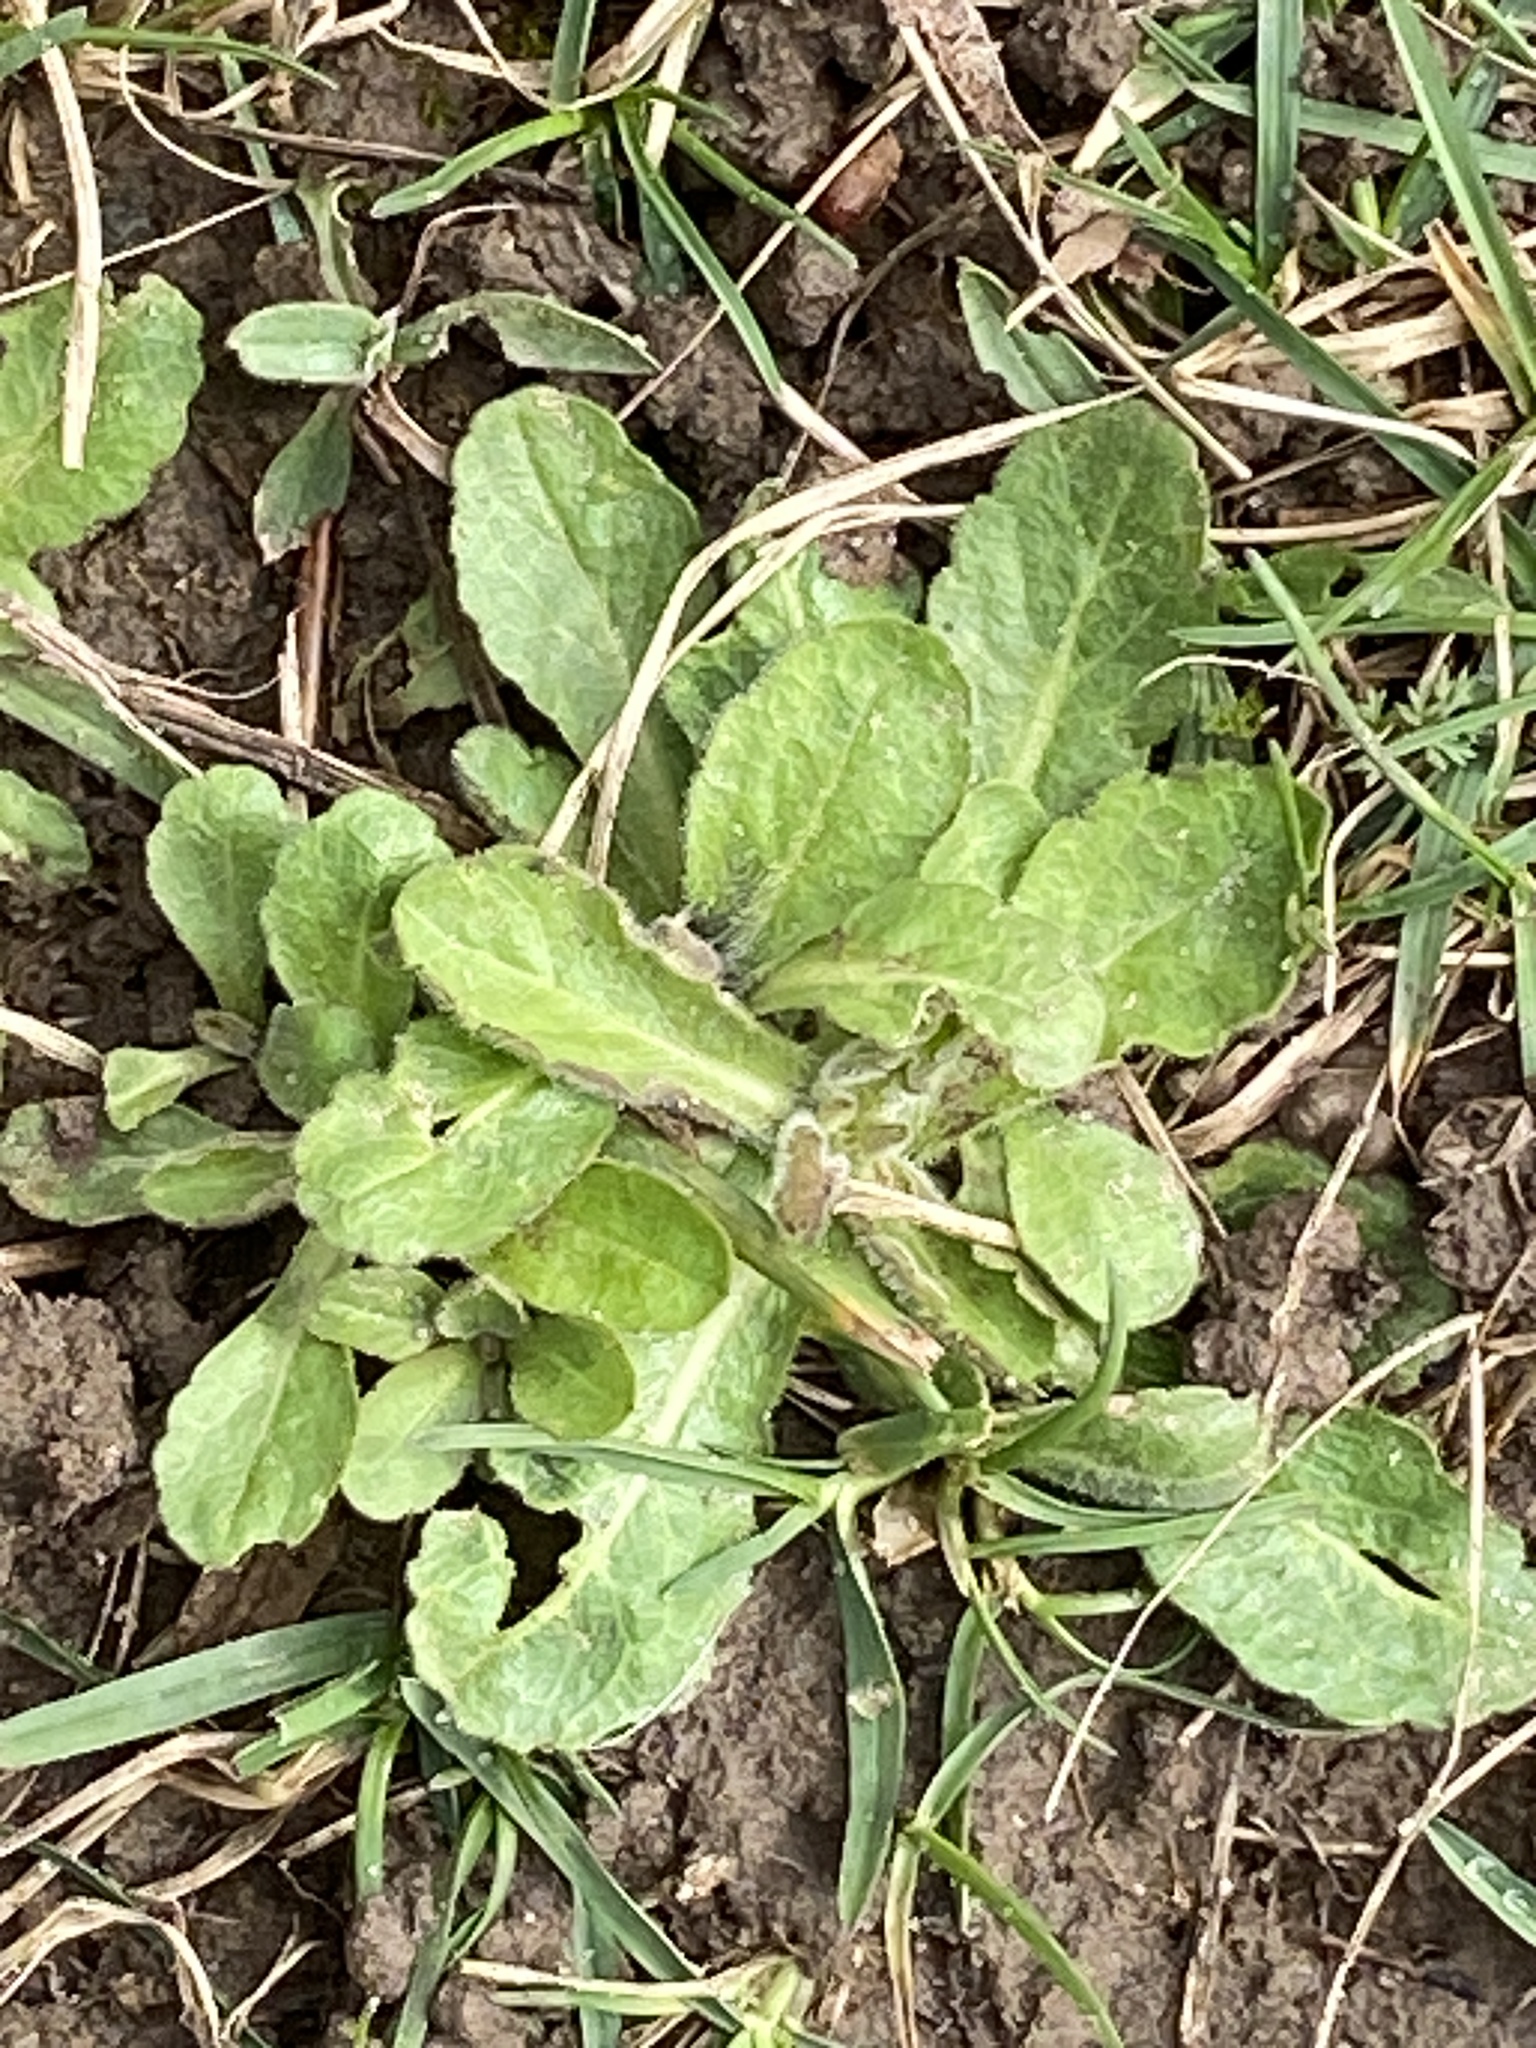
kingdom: Plantae
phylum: Tracheophyta
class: Magnoliopsida
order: Asterales
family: Asteraceae
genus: Bellis
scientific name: Bellis perennis
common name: Lawndaisy
